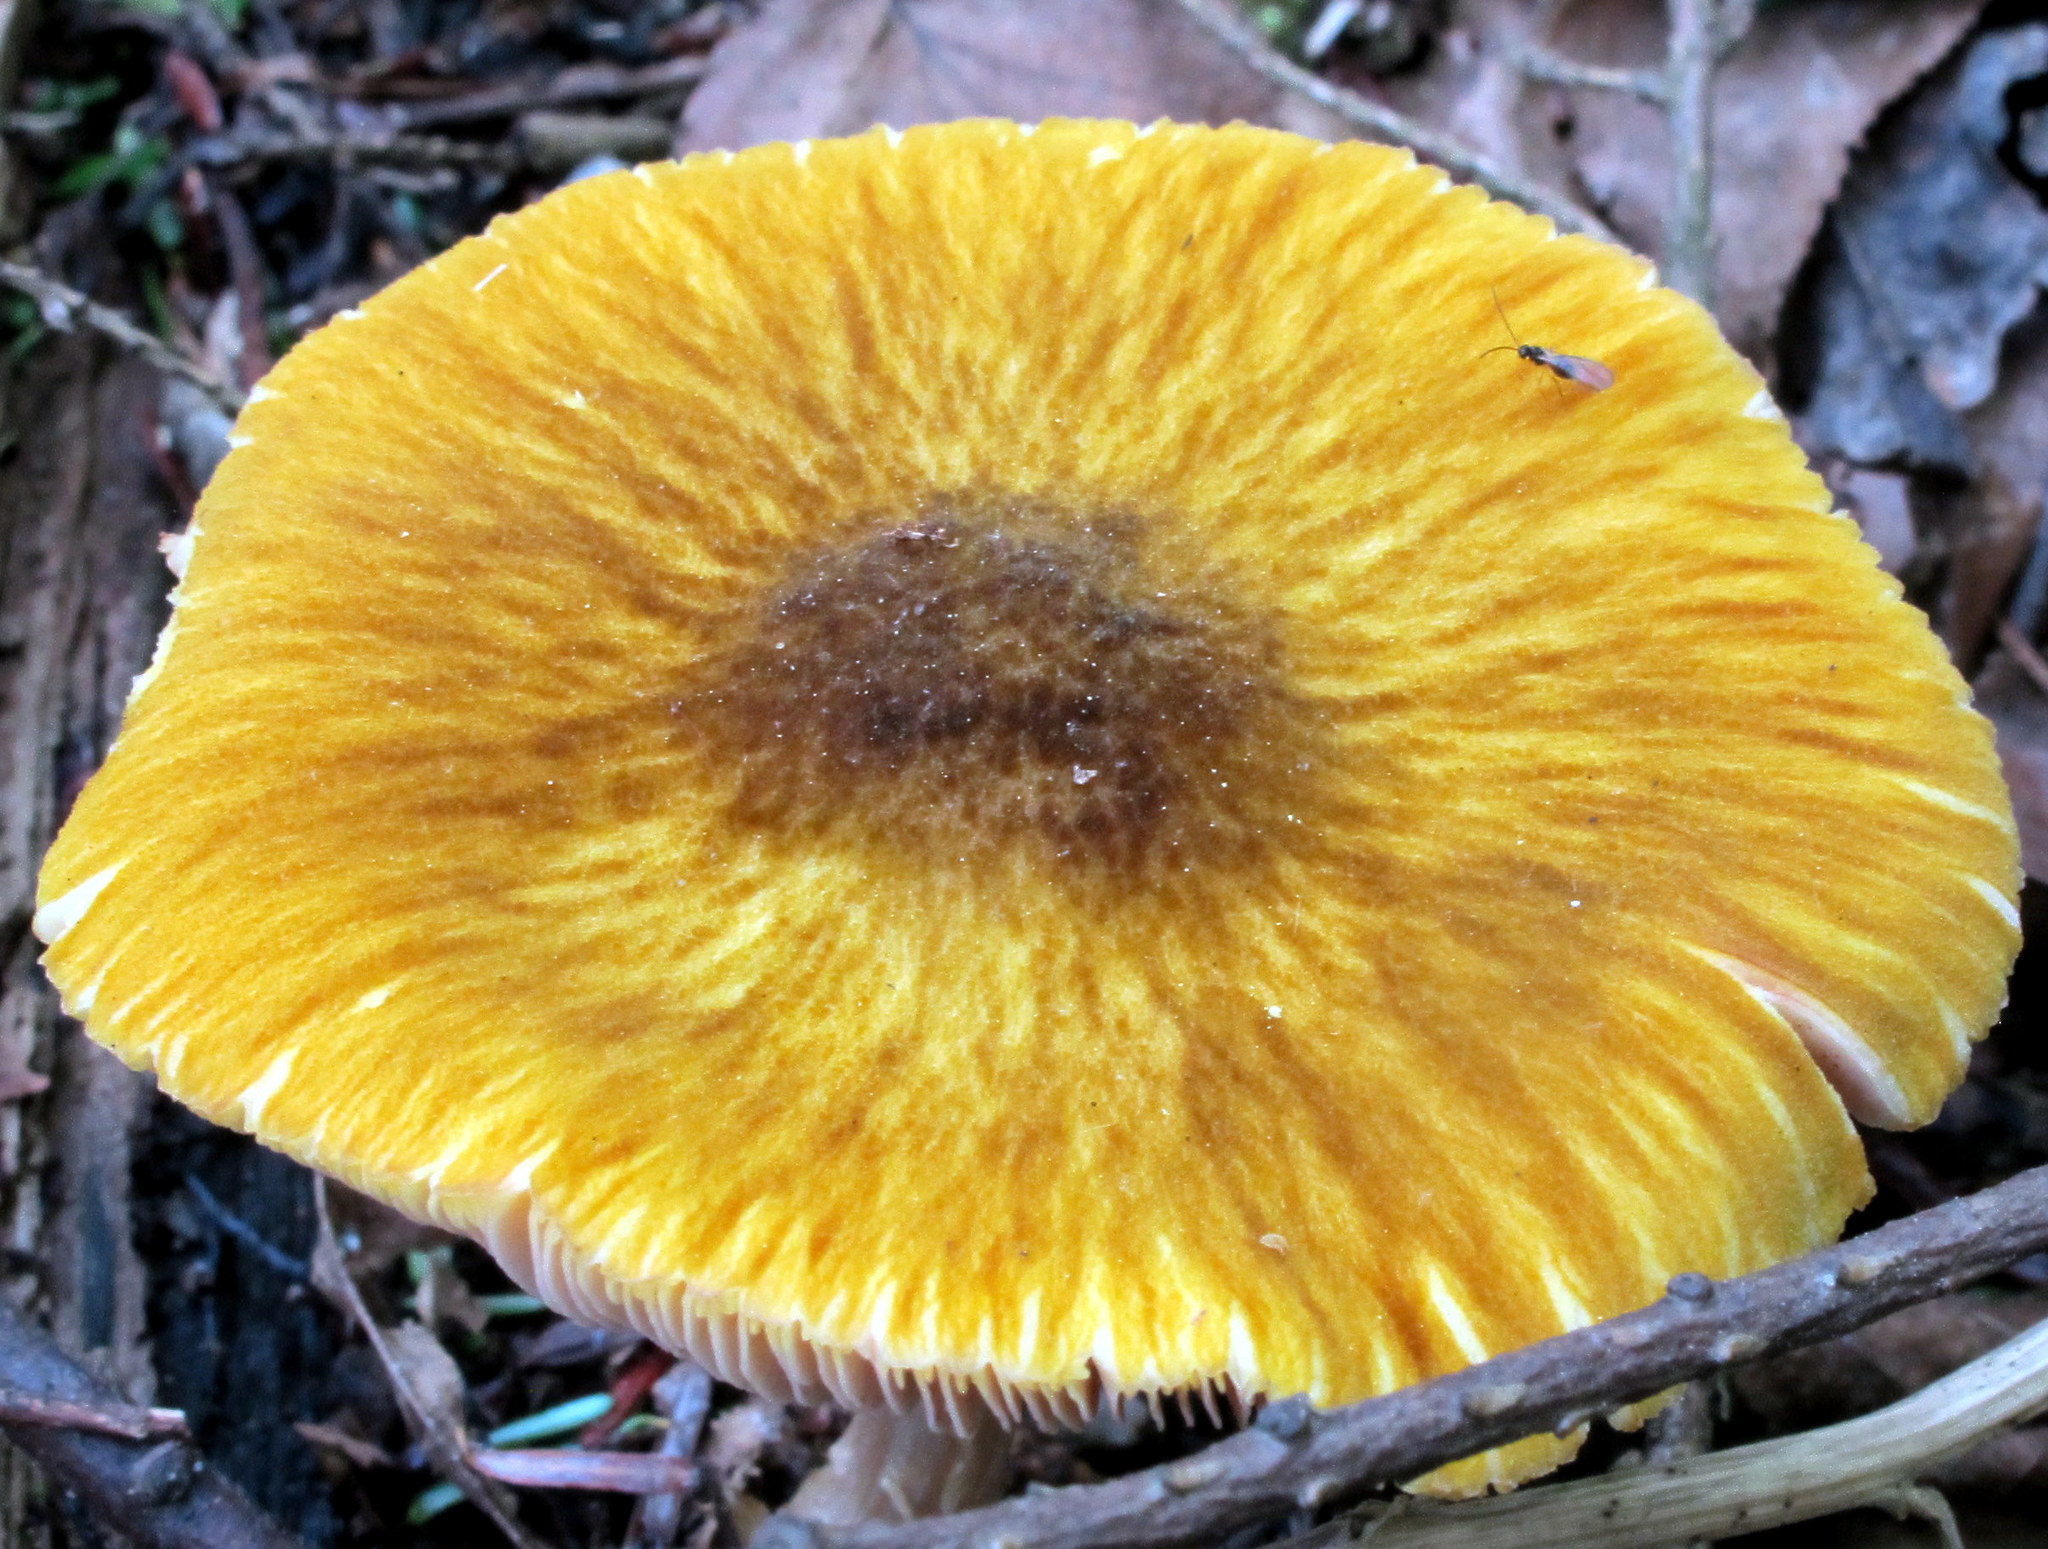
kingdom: Fungi
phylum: Basidiomycota
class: Agaricomycetes
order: Agaricales
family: Pluteaceae
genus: Pluteus
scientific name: Pluteus flavofuligineus
